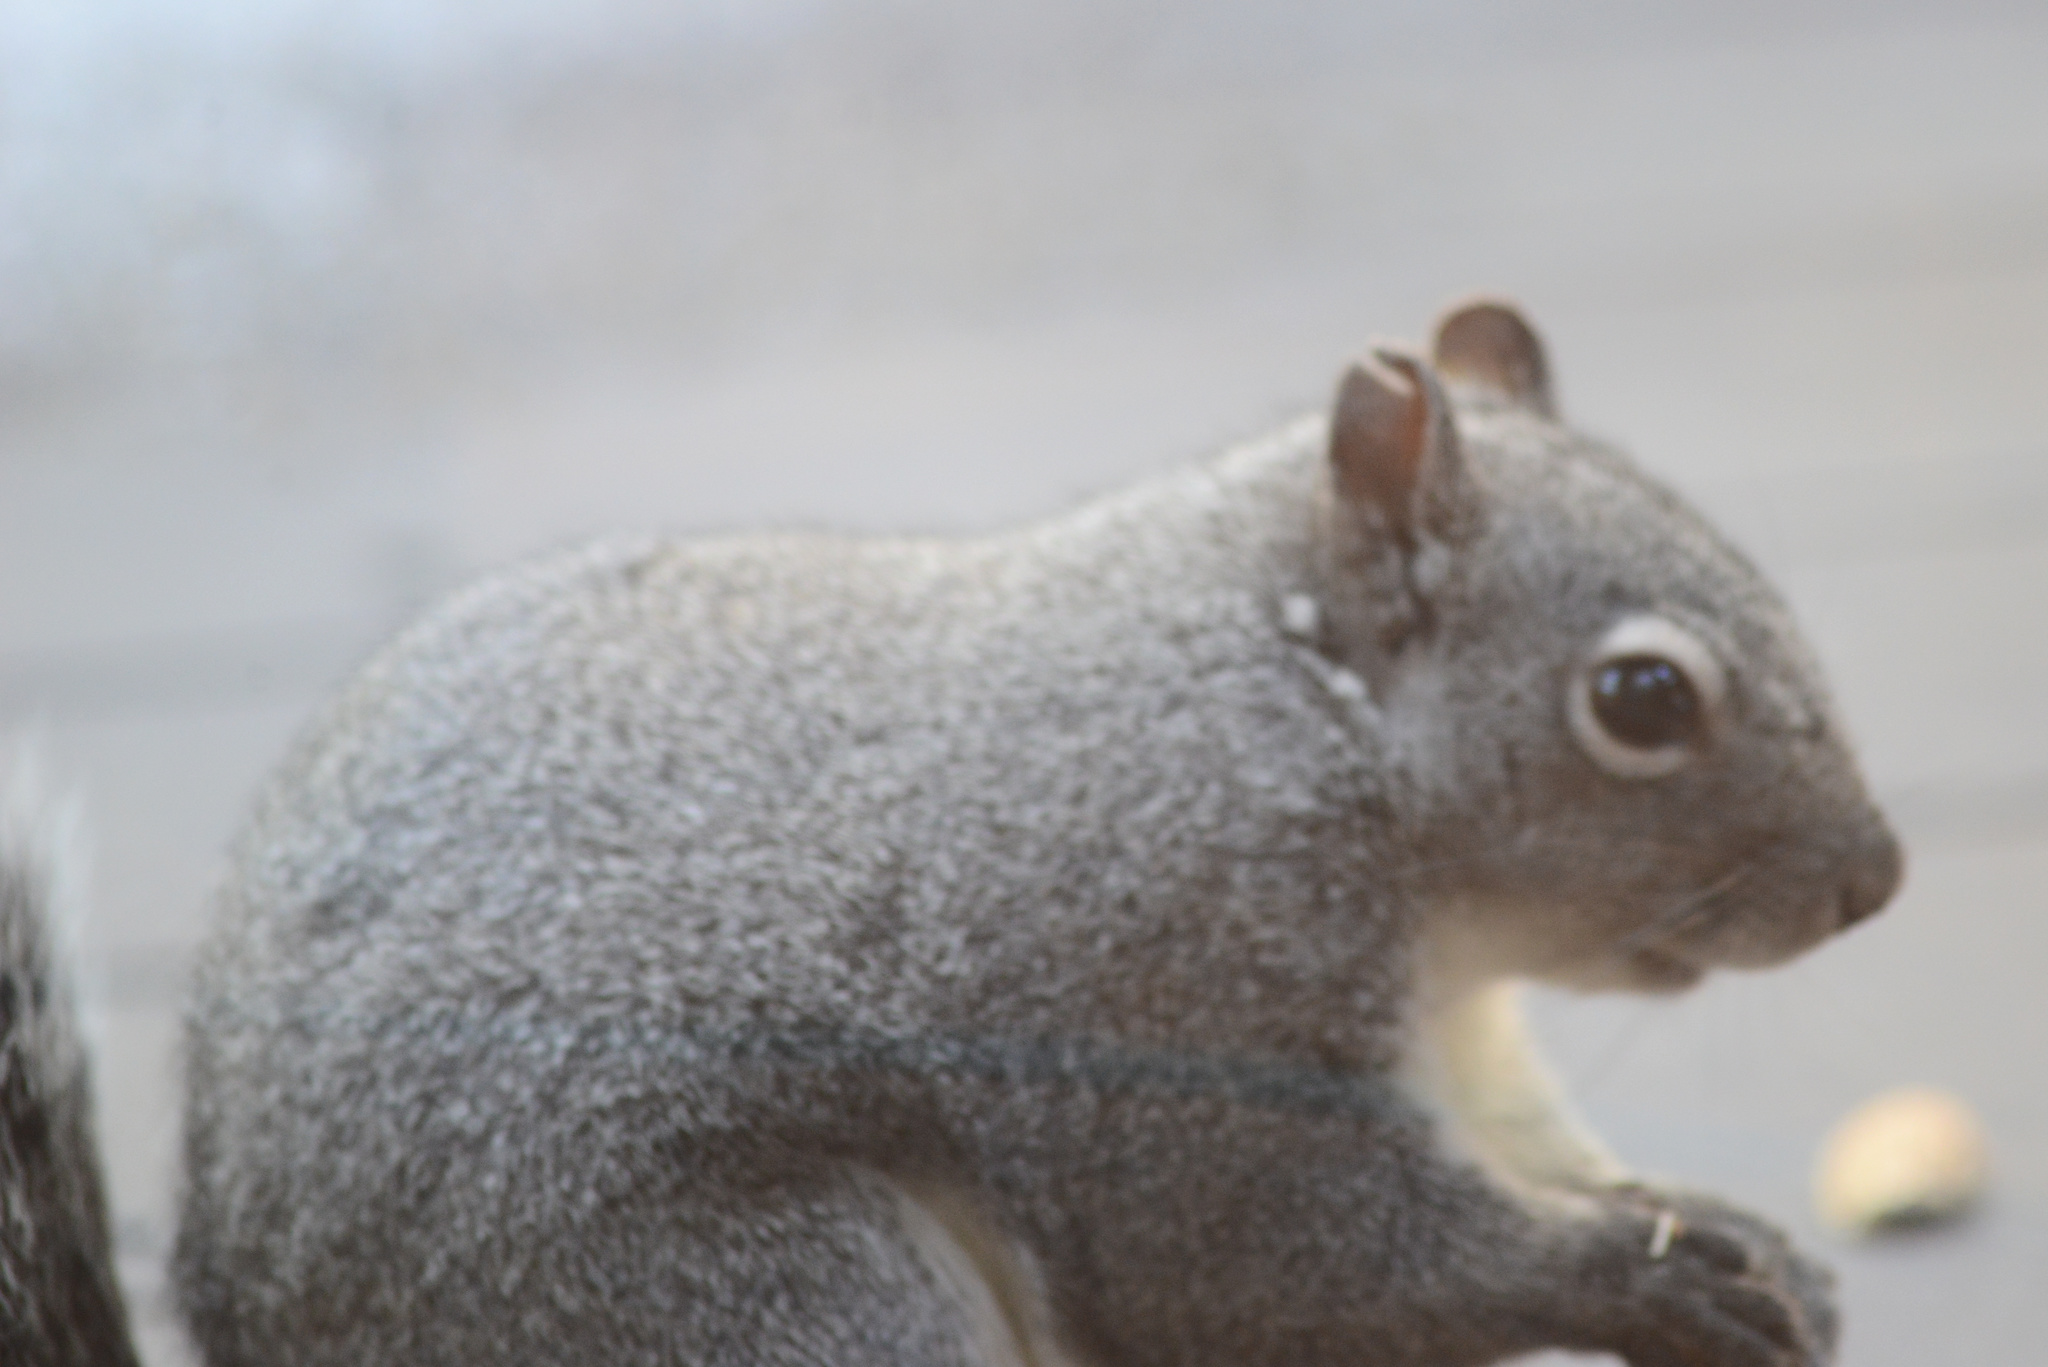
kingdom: Animalia
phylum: Chordata
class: Mammalia
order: Rodentia
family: Sciuridae
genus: Sciurus
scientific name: Sciurus griseus
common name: Western gray squirrel
